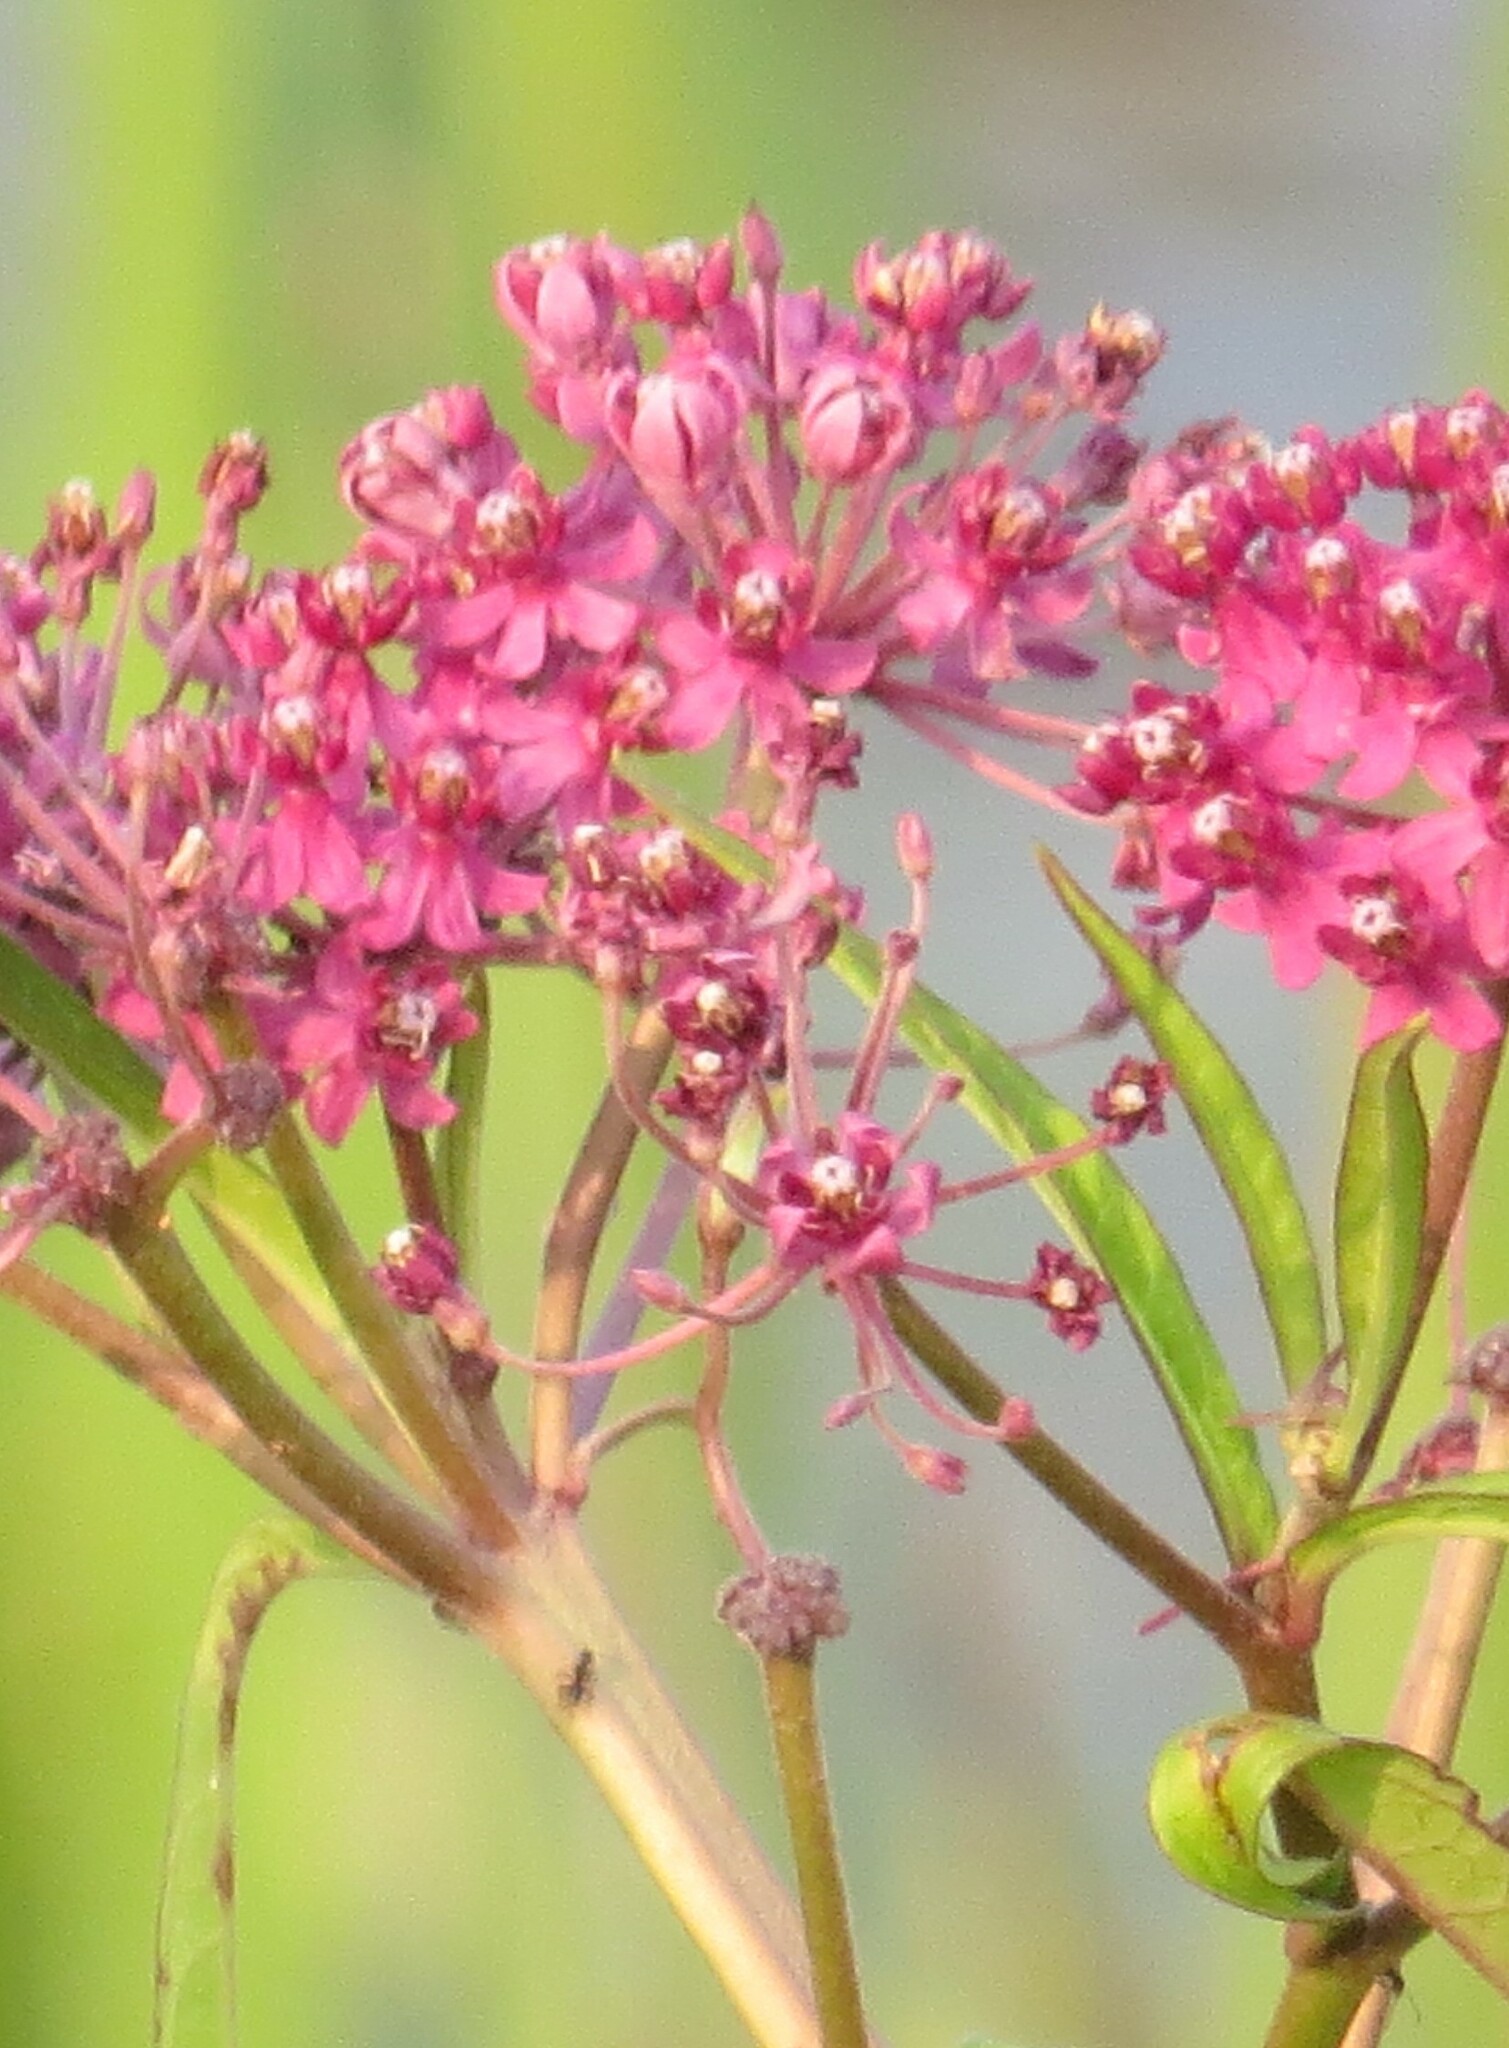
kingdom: Plantae
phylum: Tracheophyta
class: Magnoliopsida
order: Gentianales
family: Apocynaceae
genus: Asclepias
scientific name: Asclepias incarnata
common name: Swamp milkweed
